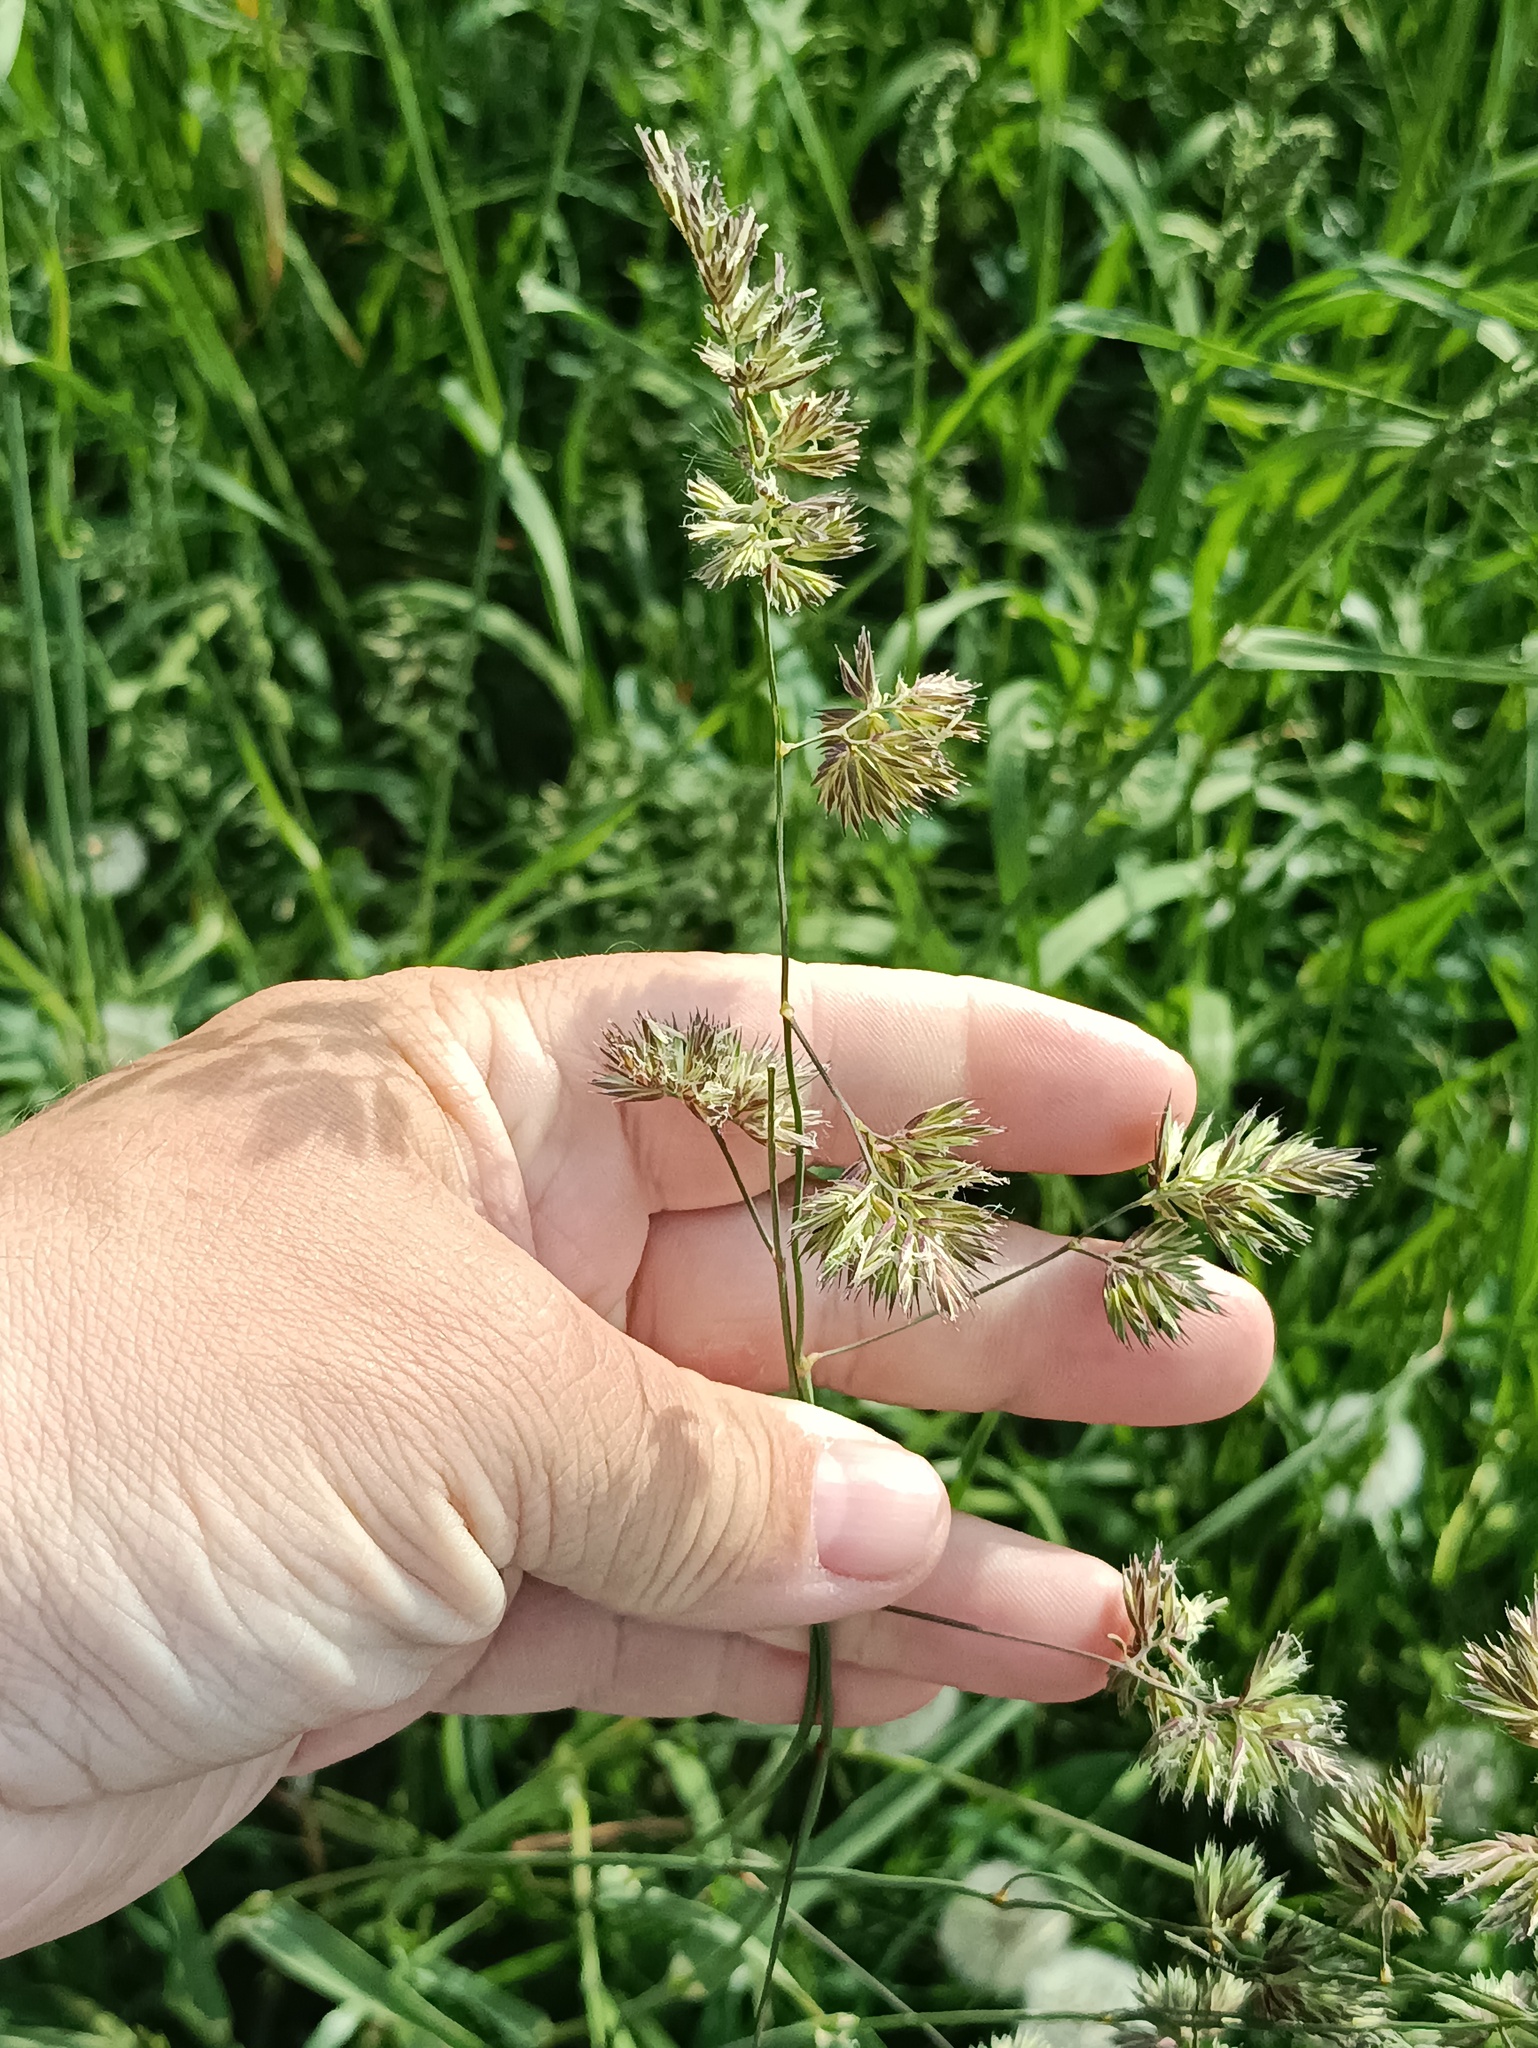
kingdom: Plantae
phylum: Tracheophyta
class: Liliopsida
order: Poales
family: Poaceae
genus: Dactylis
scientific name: Dactylis glomerata
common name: Orchardgrass
